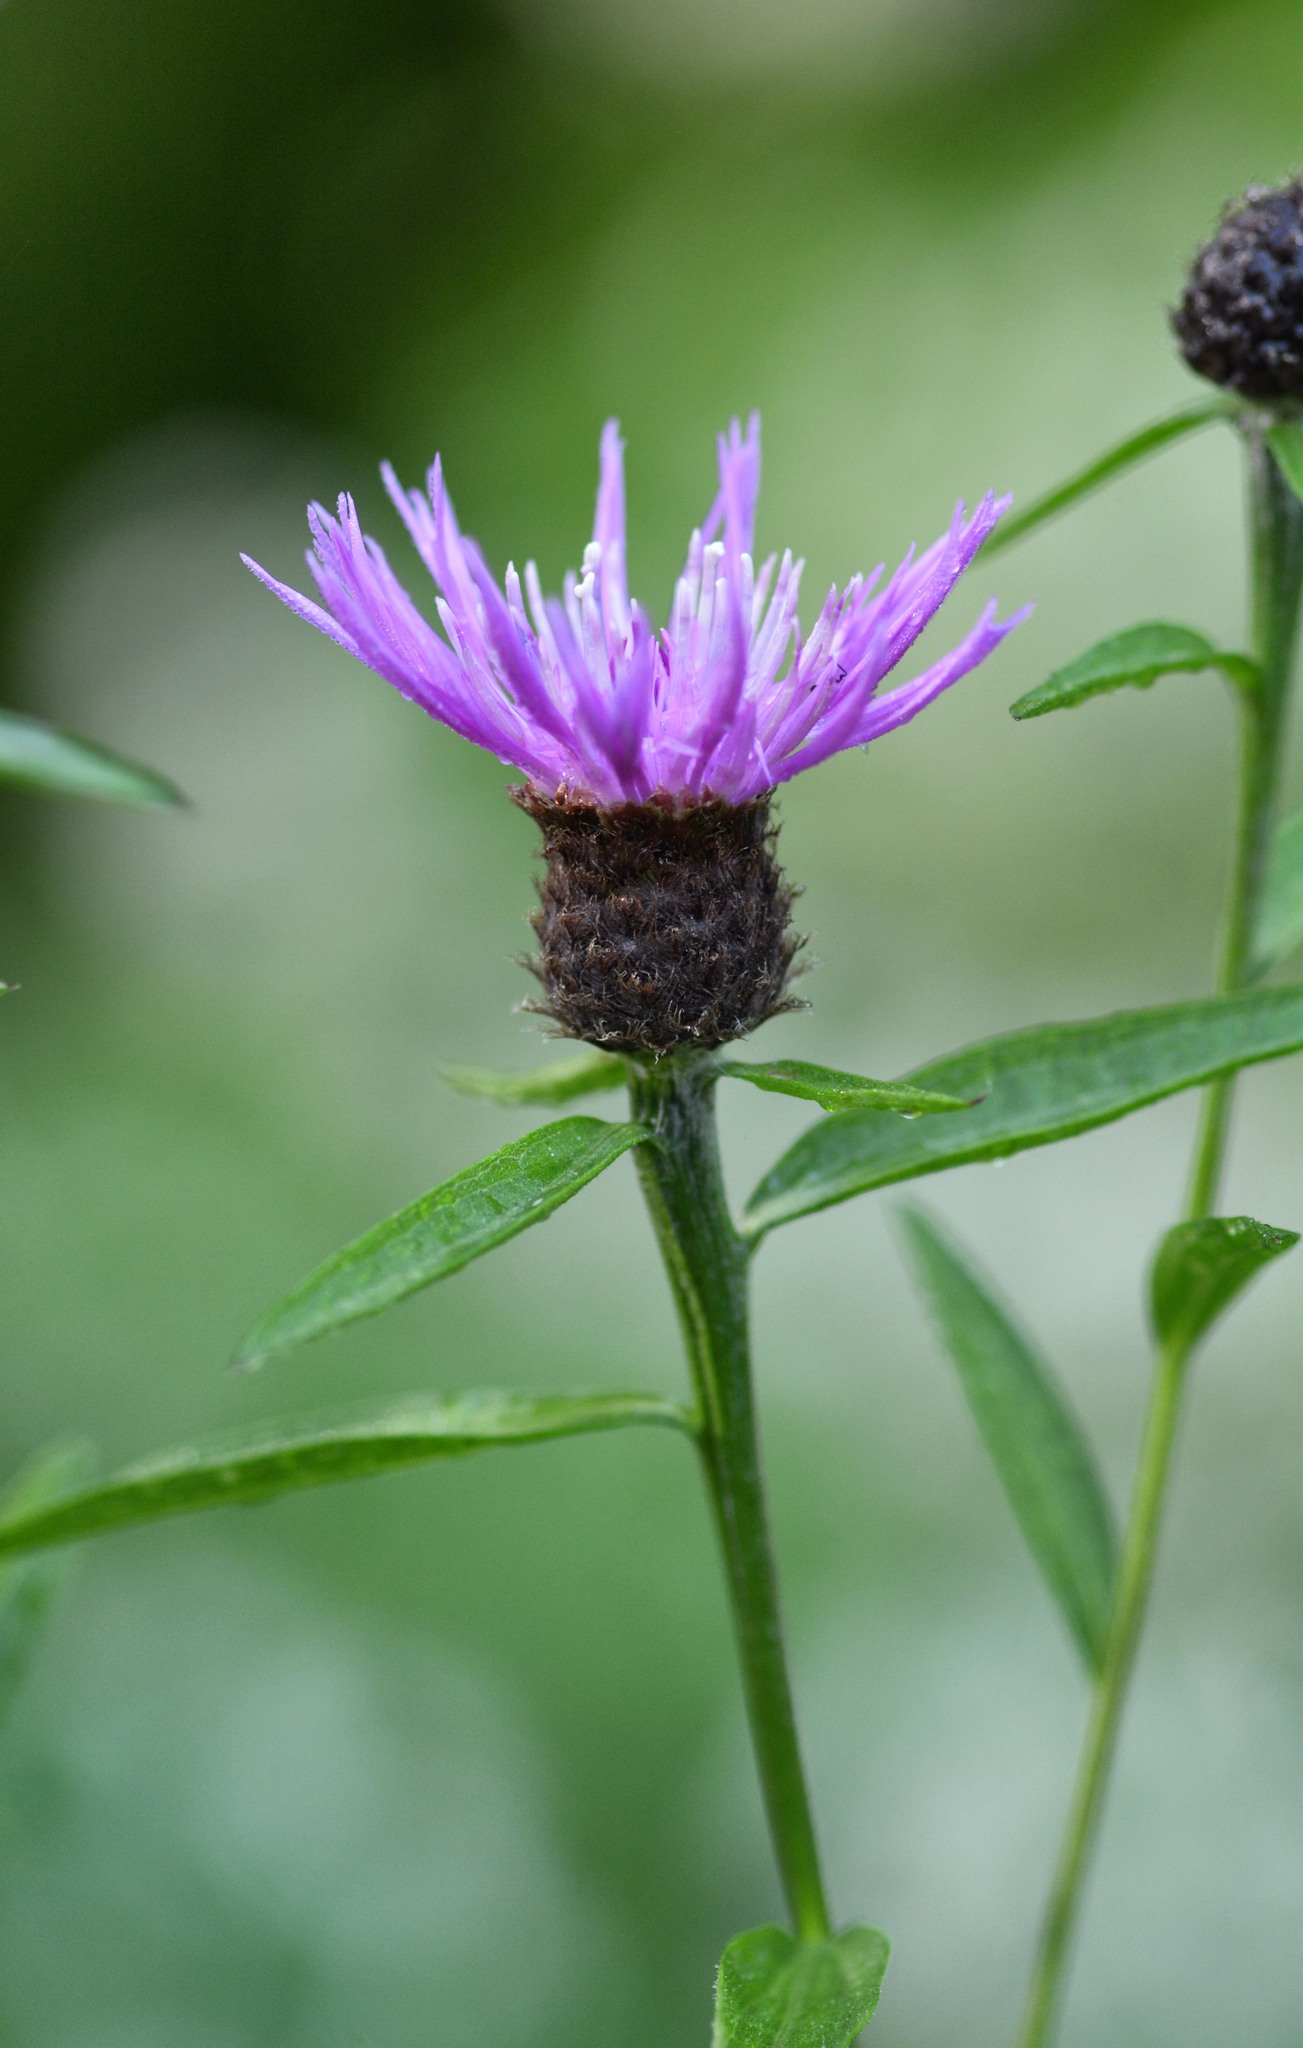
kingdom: Plantae
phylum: Tracheophyta
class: Magnoliopsida
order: Asterales
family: Asteraceae
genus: Centaurea
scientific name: Centaurea nigra
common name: Lesser knapweed
